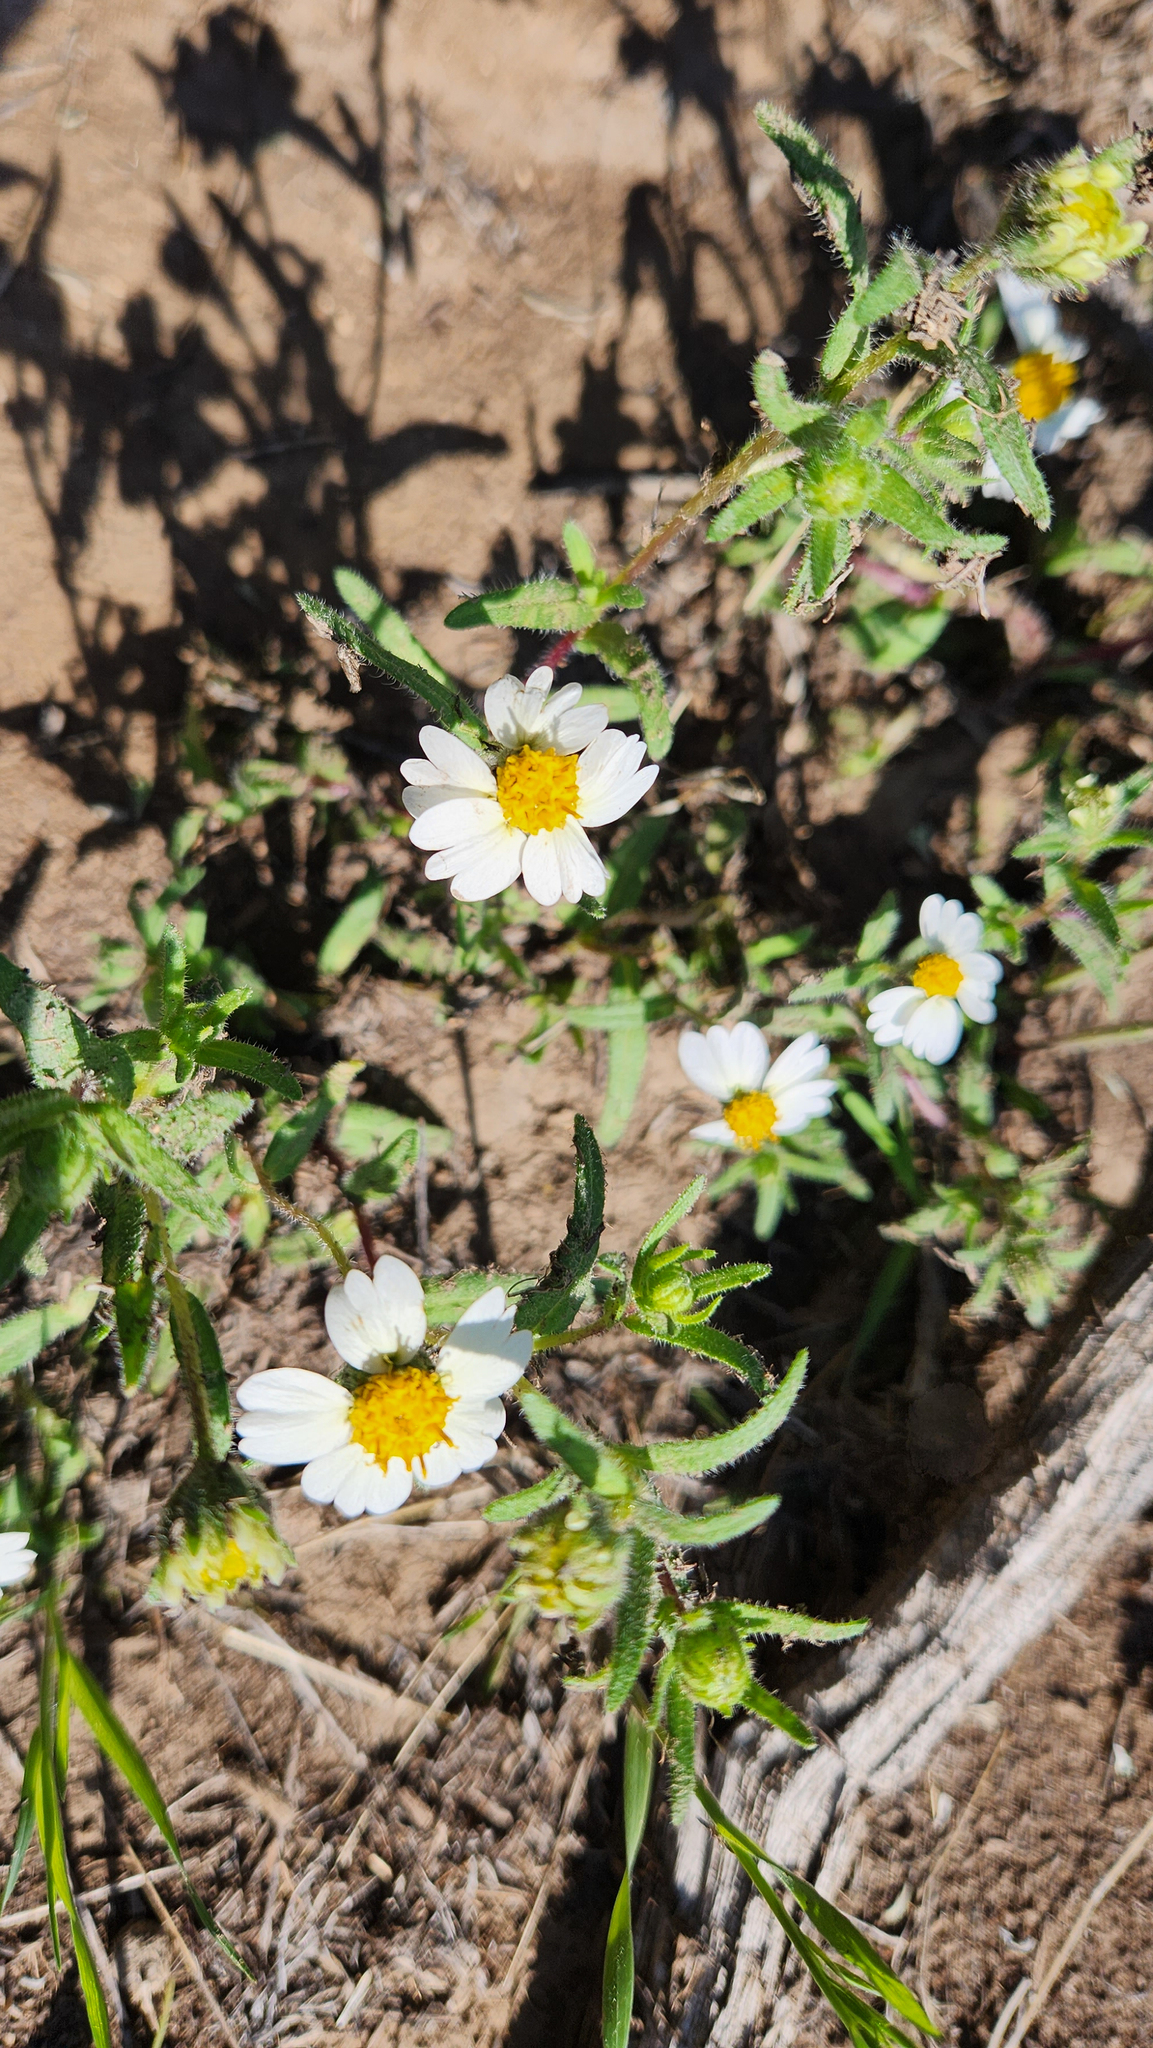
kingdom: Plantae
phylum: Tracheophyta
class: Magnoliopsida
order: Asterales
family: Asteraceae
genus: Layia
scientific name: Layia glandulosa
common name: White layia
